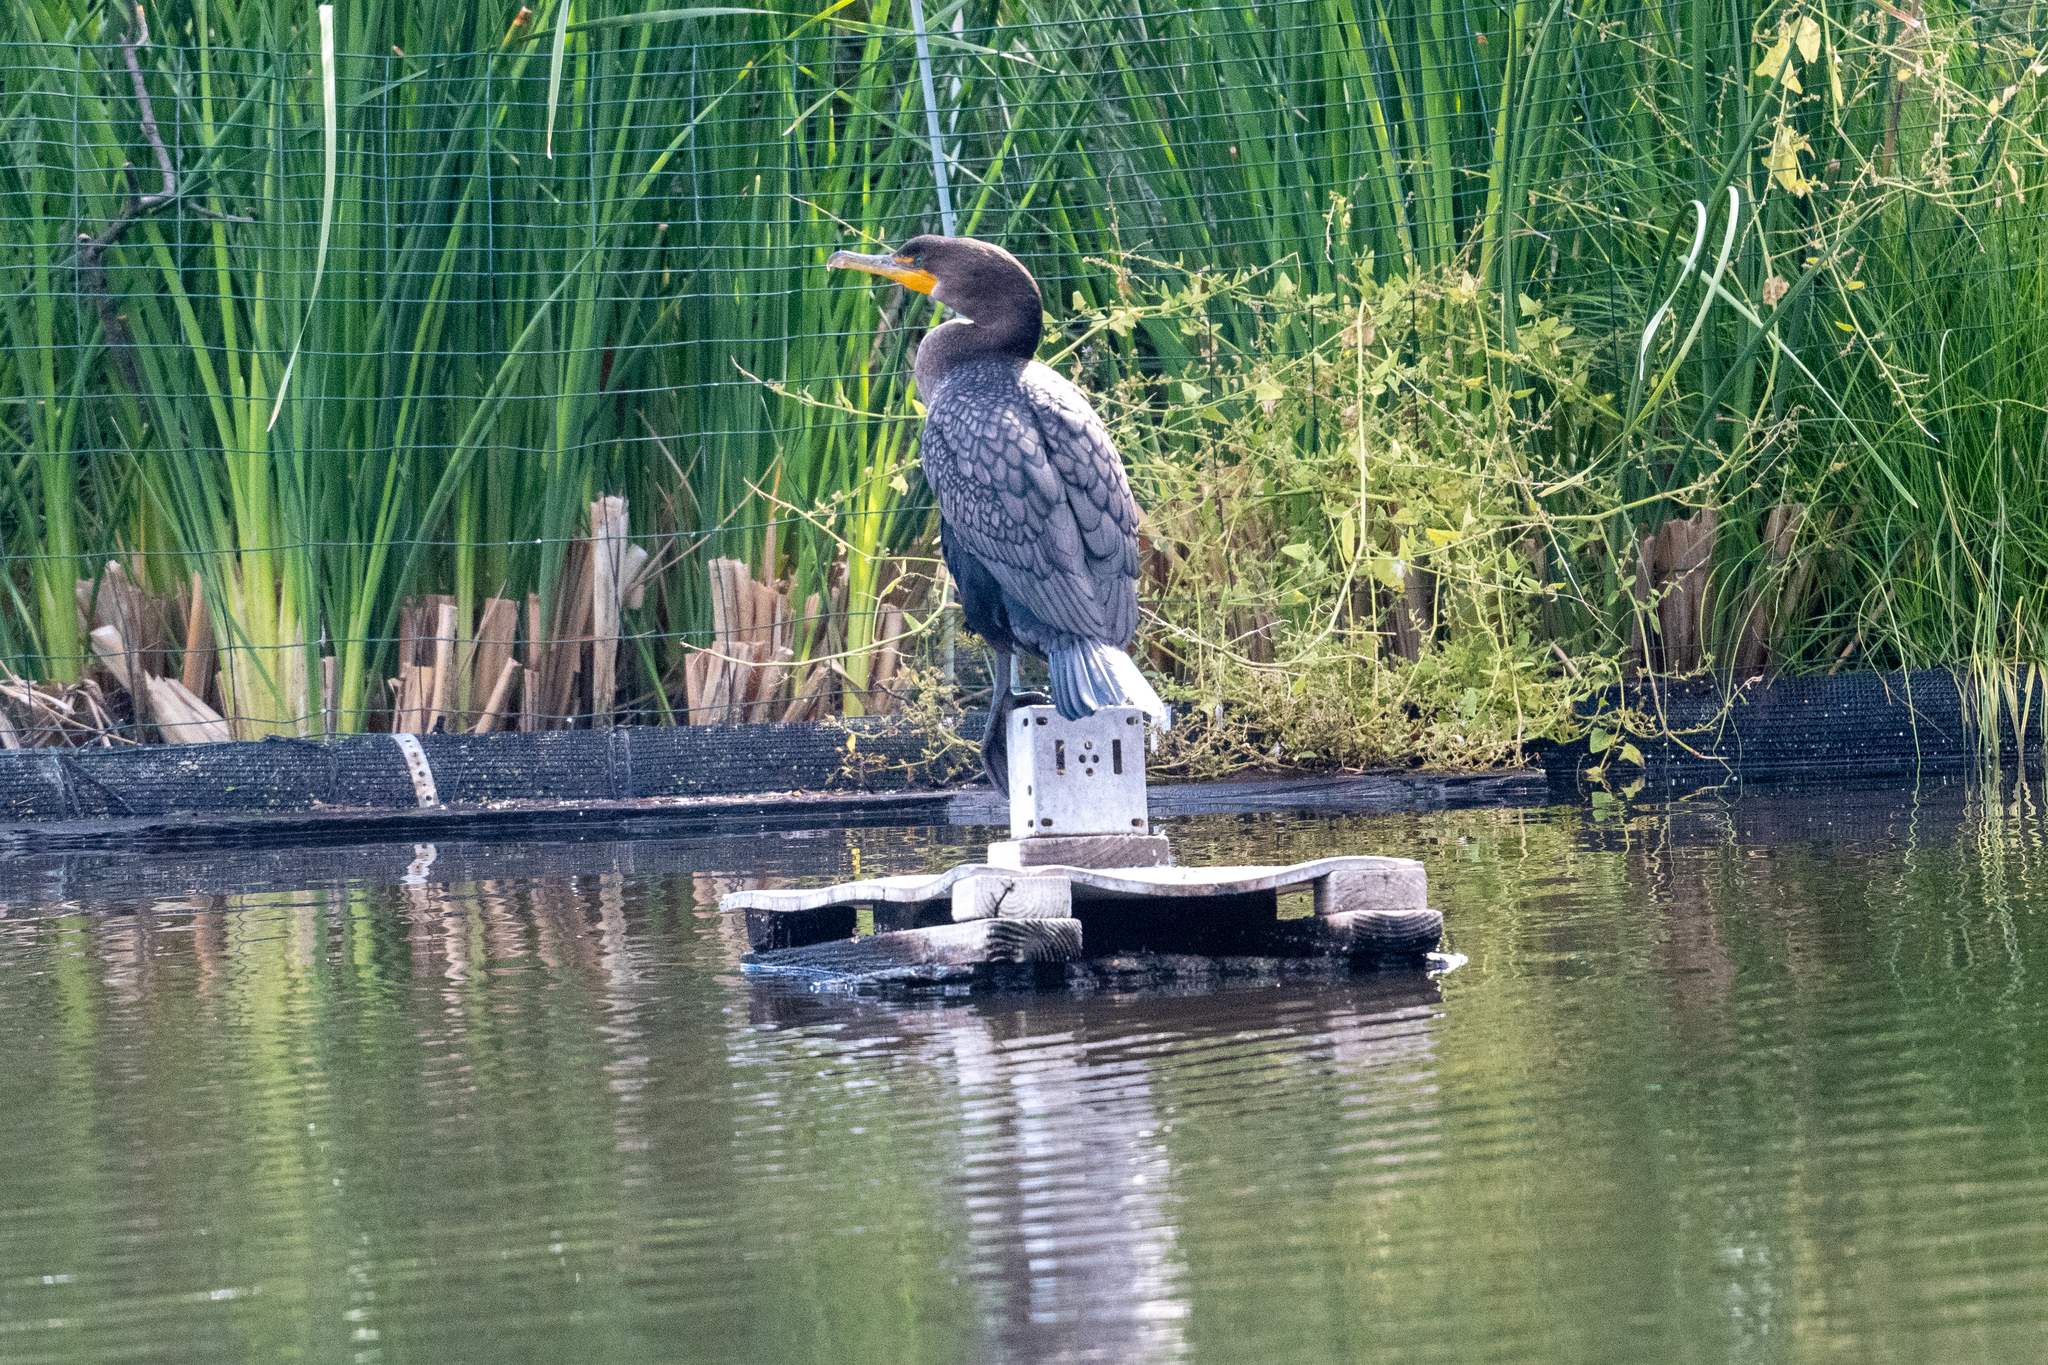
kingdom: Animalia
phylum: Chordata
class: Aves
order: Suliformes
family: Phalacrocoracidae
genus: Phalacrocorax
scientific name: Phalacrocorax auritus
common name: Double-crested cormorant
